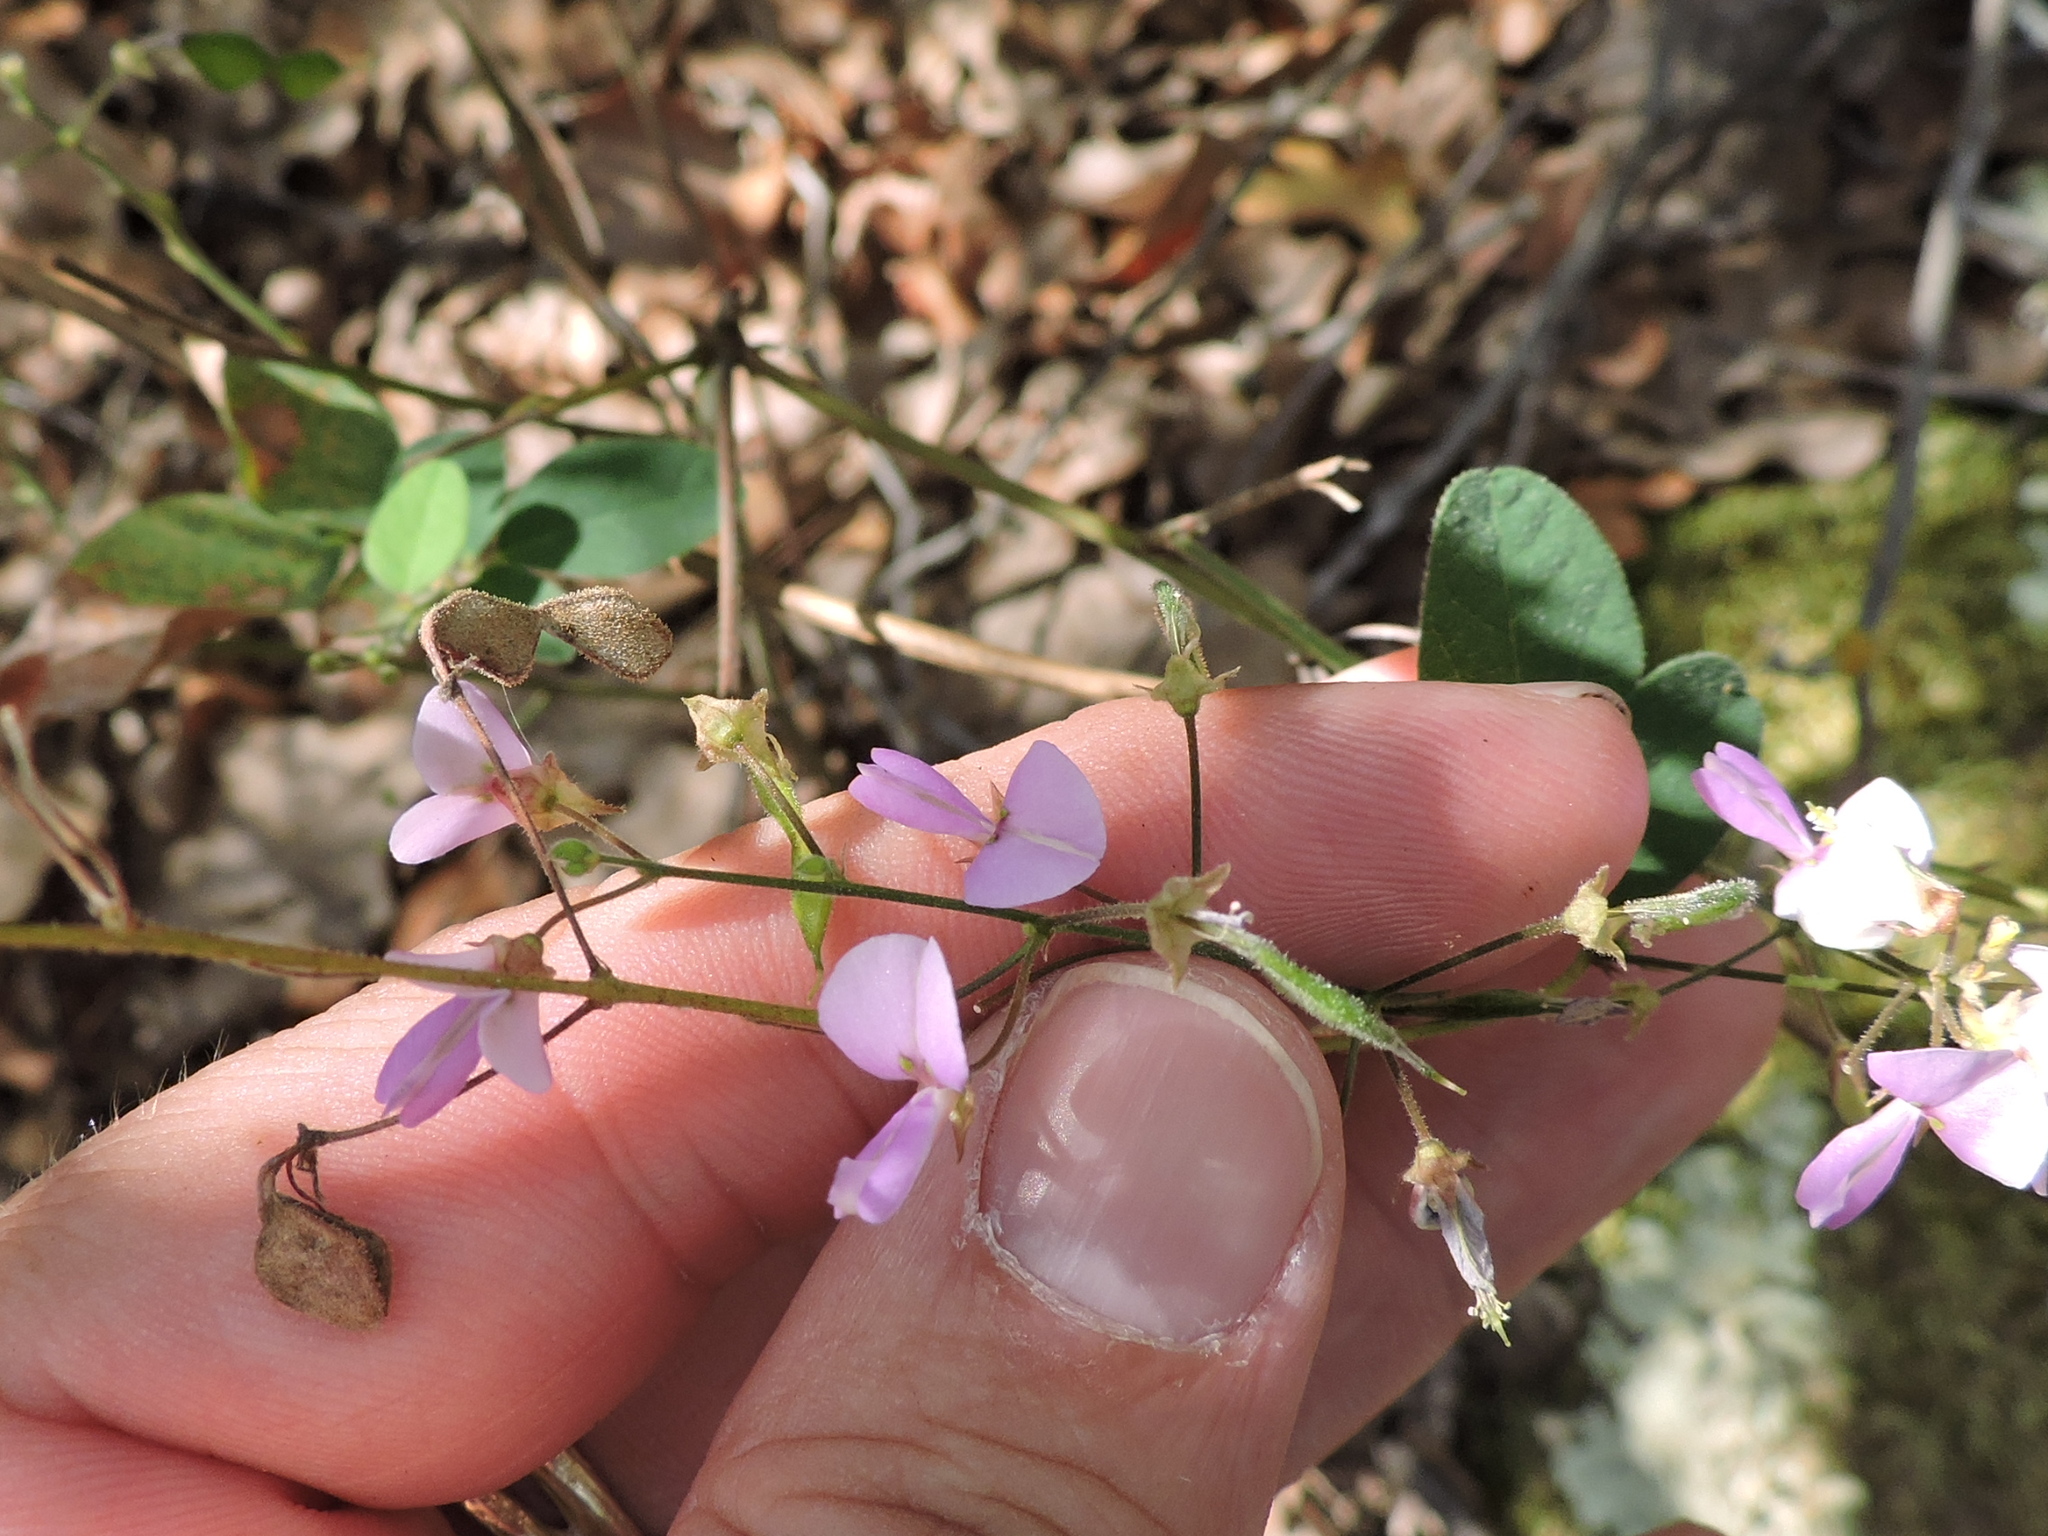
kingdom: Plantae
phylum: Tracheophyta
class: Magnoliopsida
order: Fabales
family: Fabaceae
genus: Desmodium
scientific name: Desmodium paniculatum
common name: Panicled tick-clover
